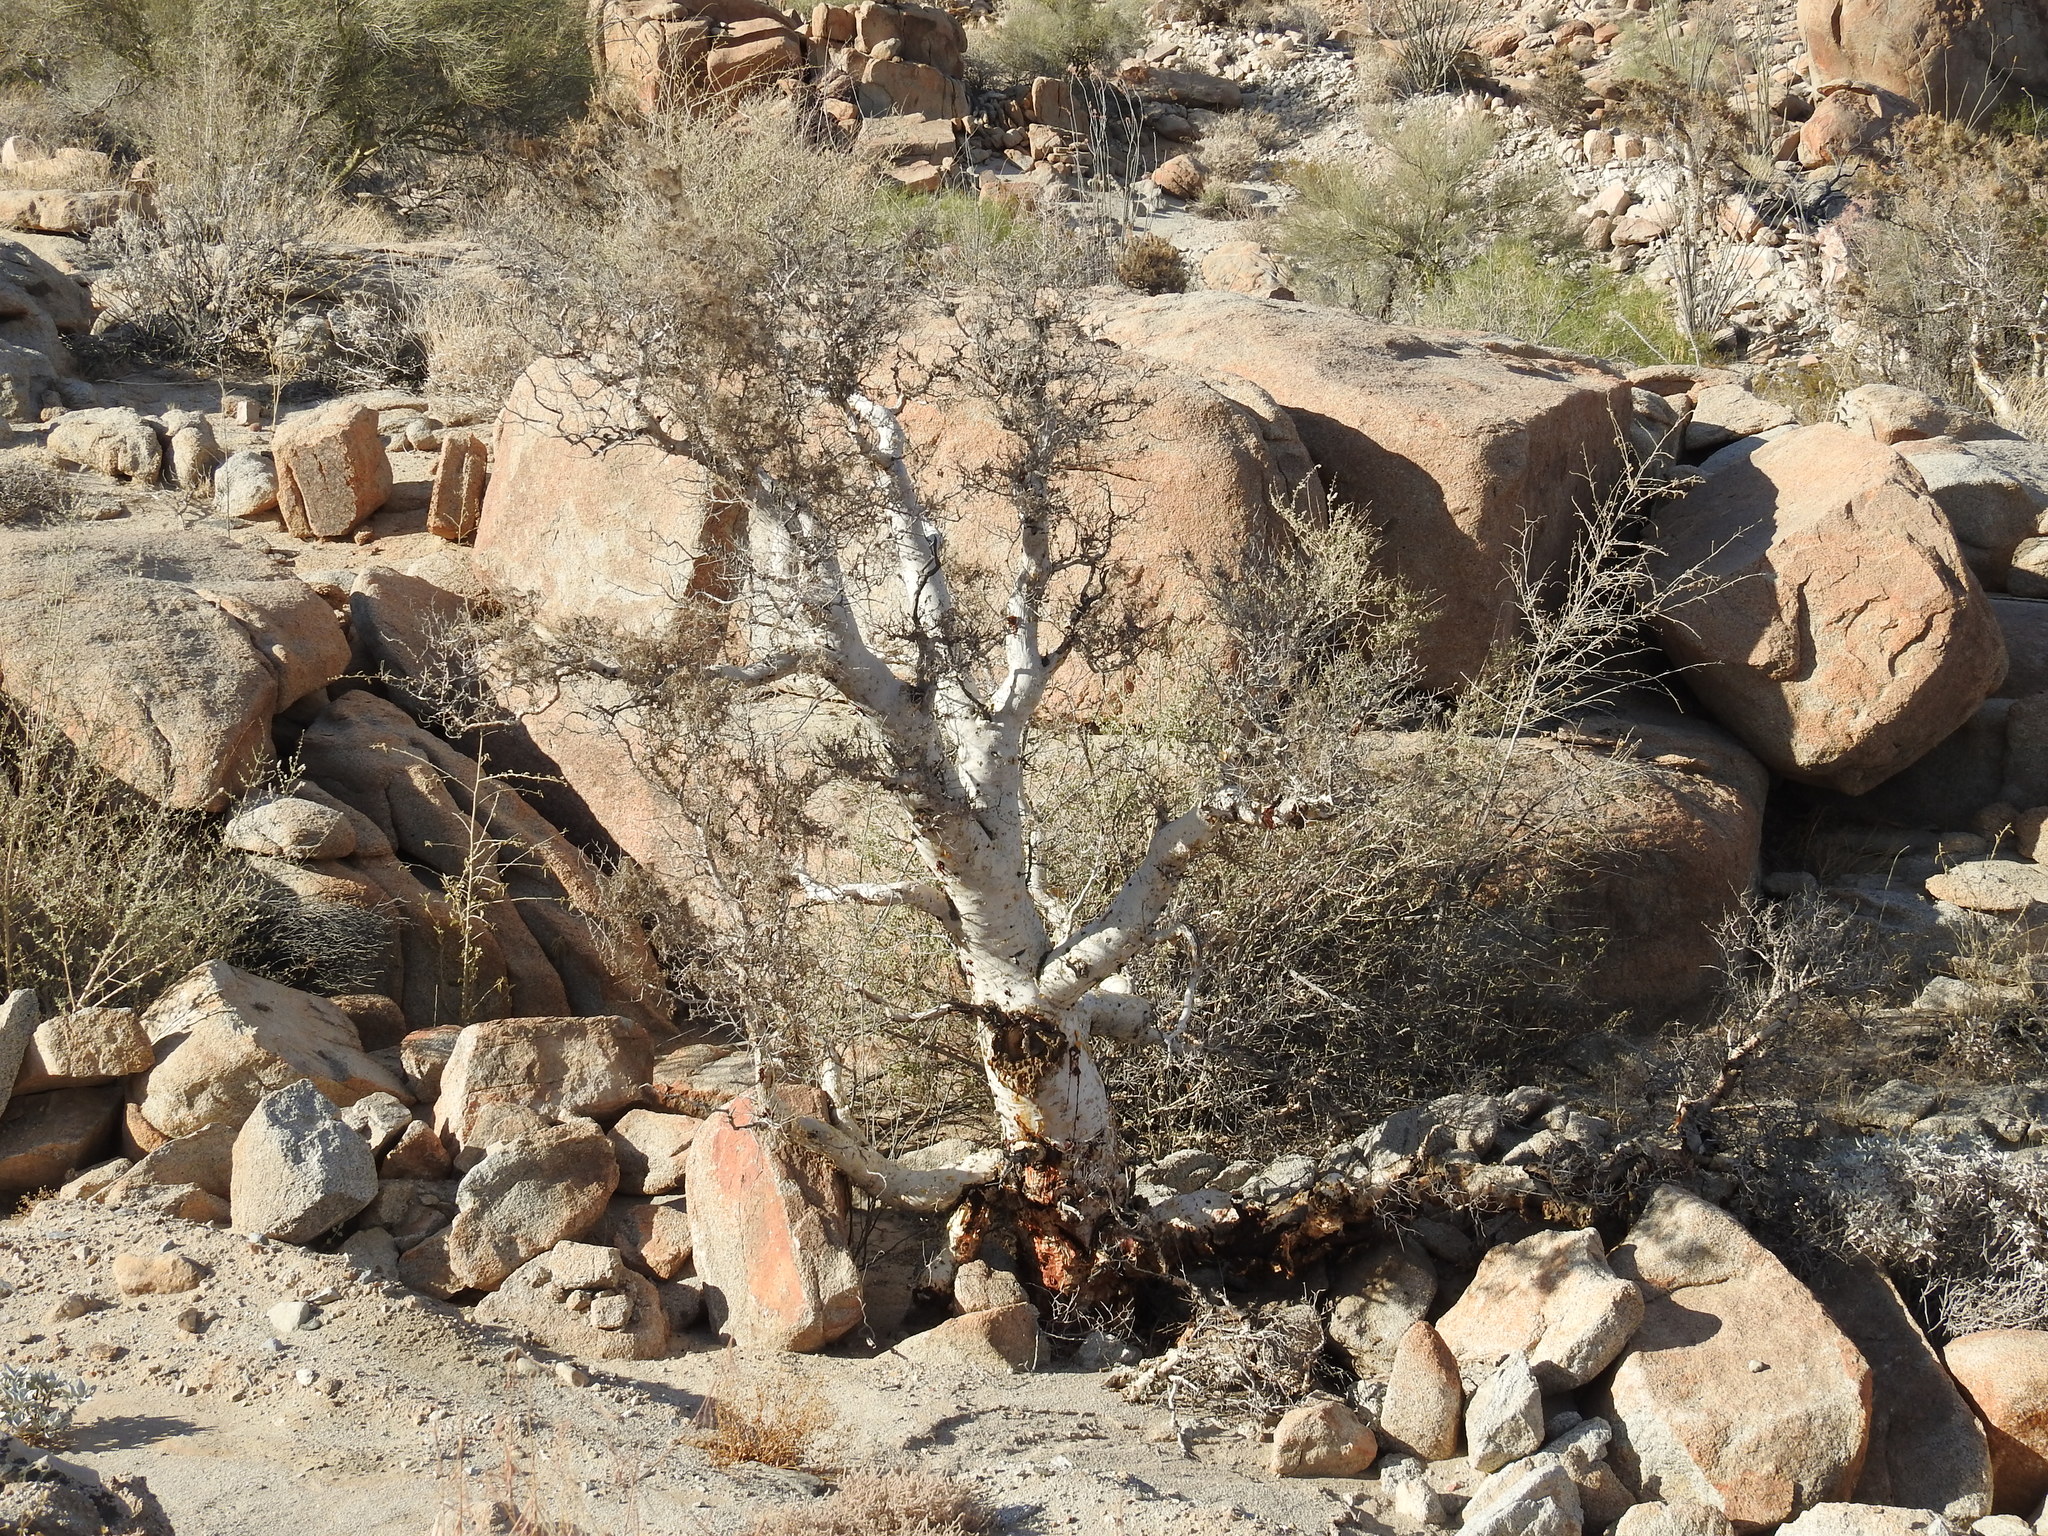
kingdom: Plantae
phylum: Tracheophyta
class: Magnoliopsida
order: Sapindales
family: Anacardiaceae
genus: Pachycormus
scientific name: Pachycormus discolor
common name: Succulent elephant trees
